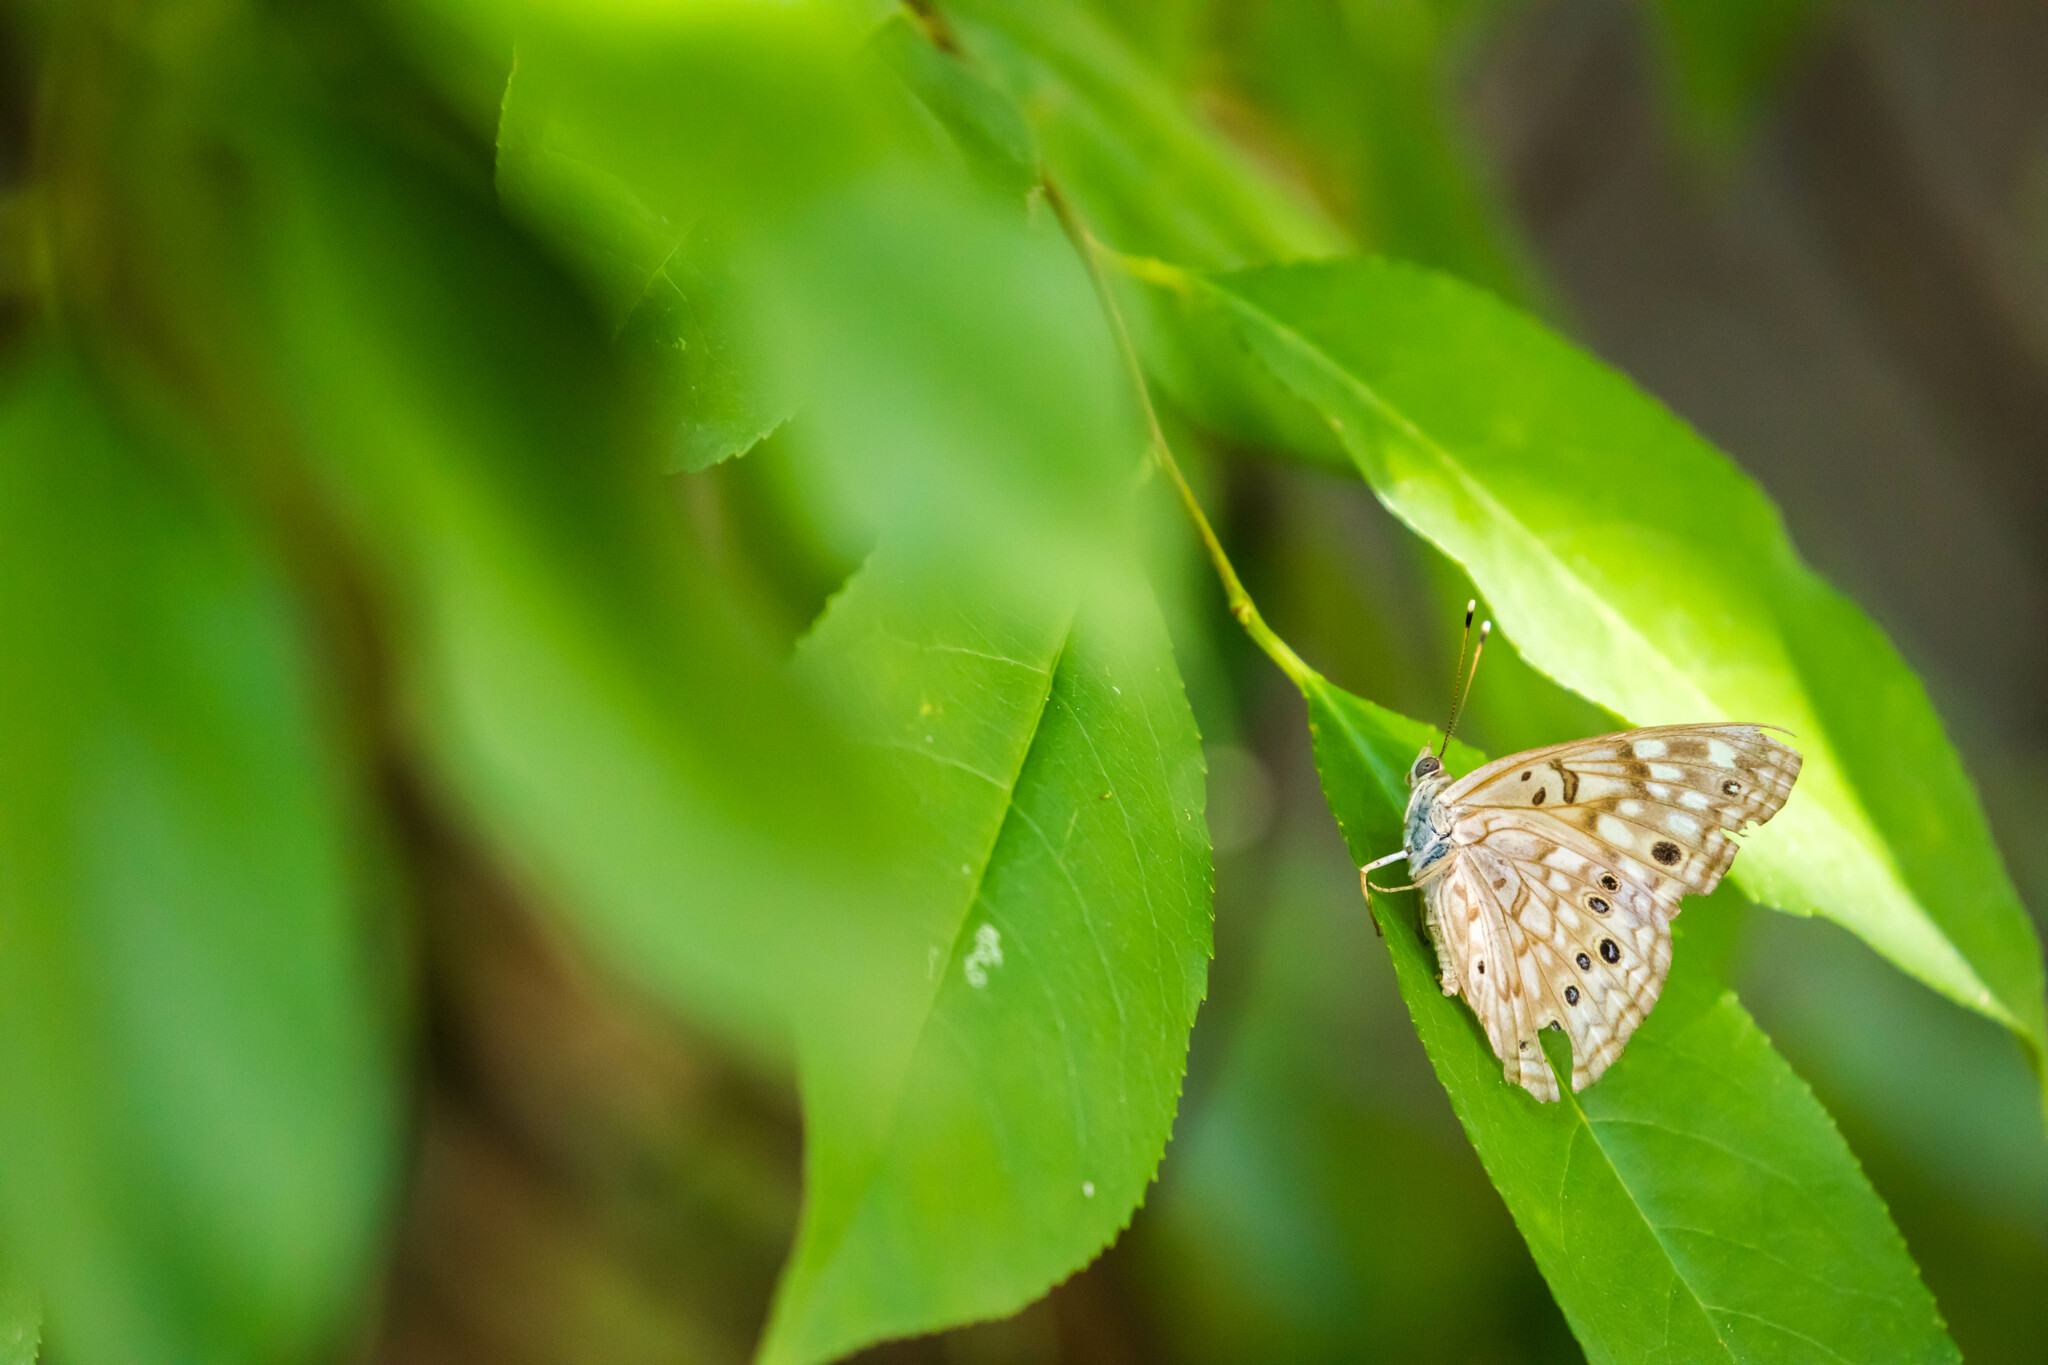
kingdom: Animalia
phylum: Arthropoda
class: Insecta
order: Lepidoptera
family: Nymphalidae
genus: Asterocampa
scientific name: Asterocampa celtis
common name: Hackberry emperor
